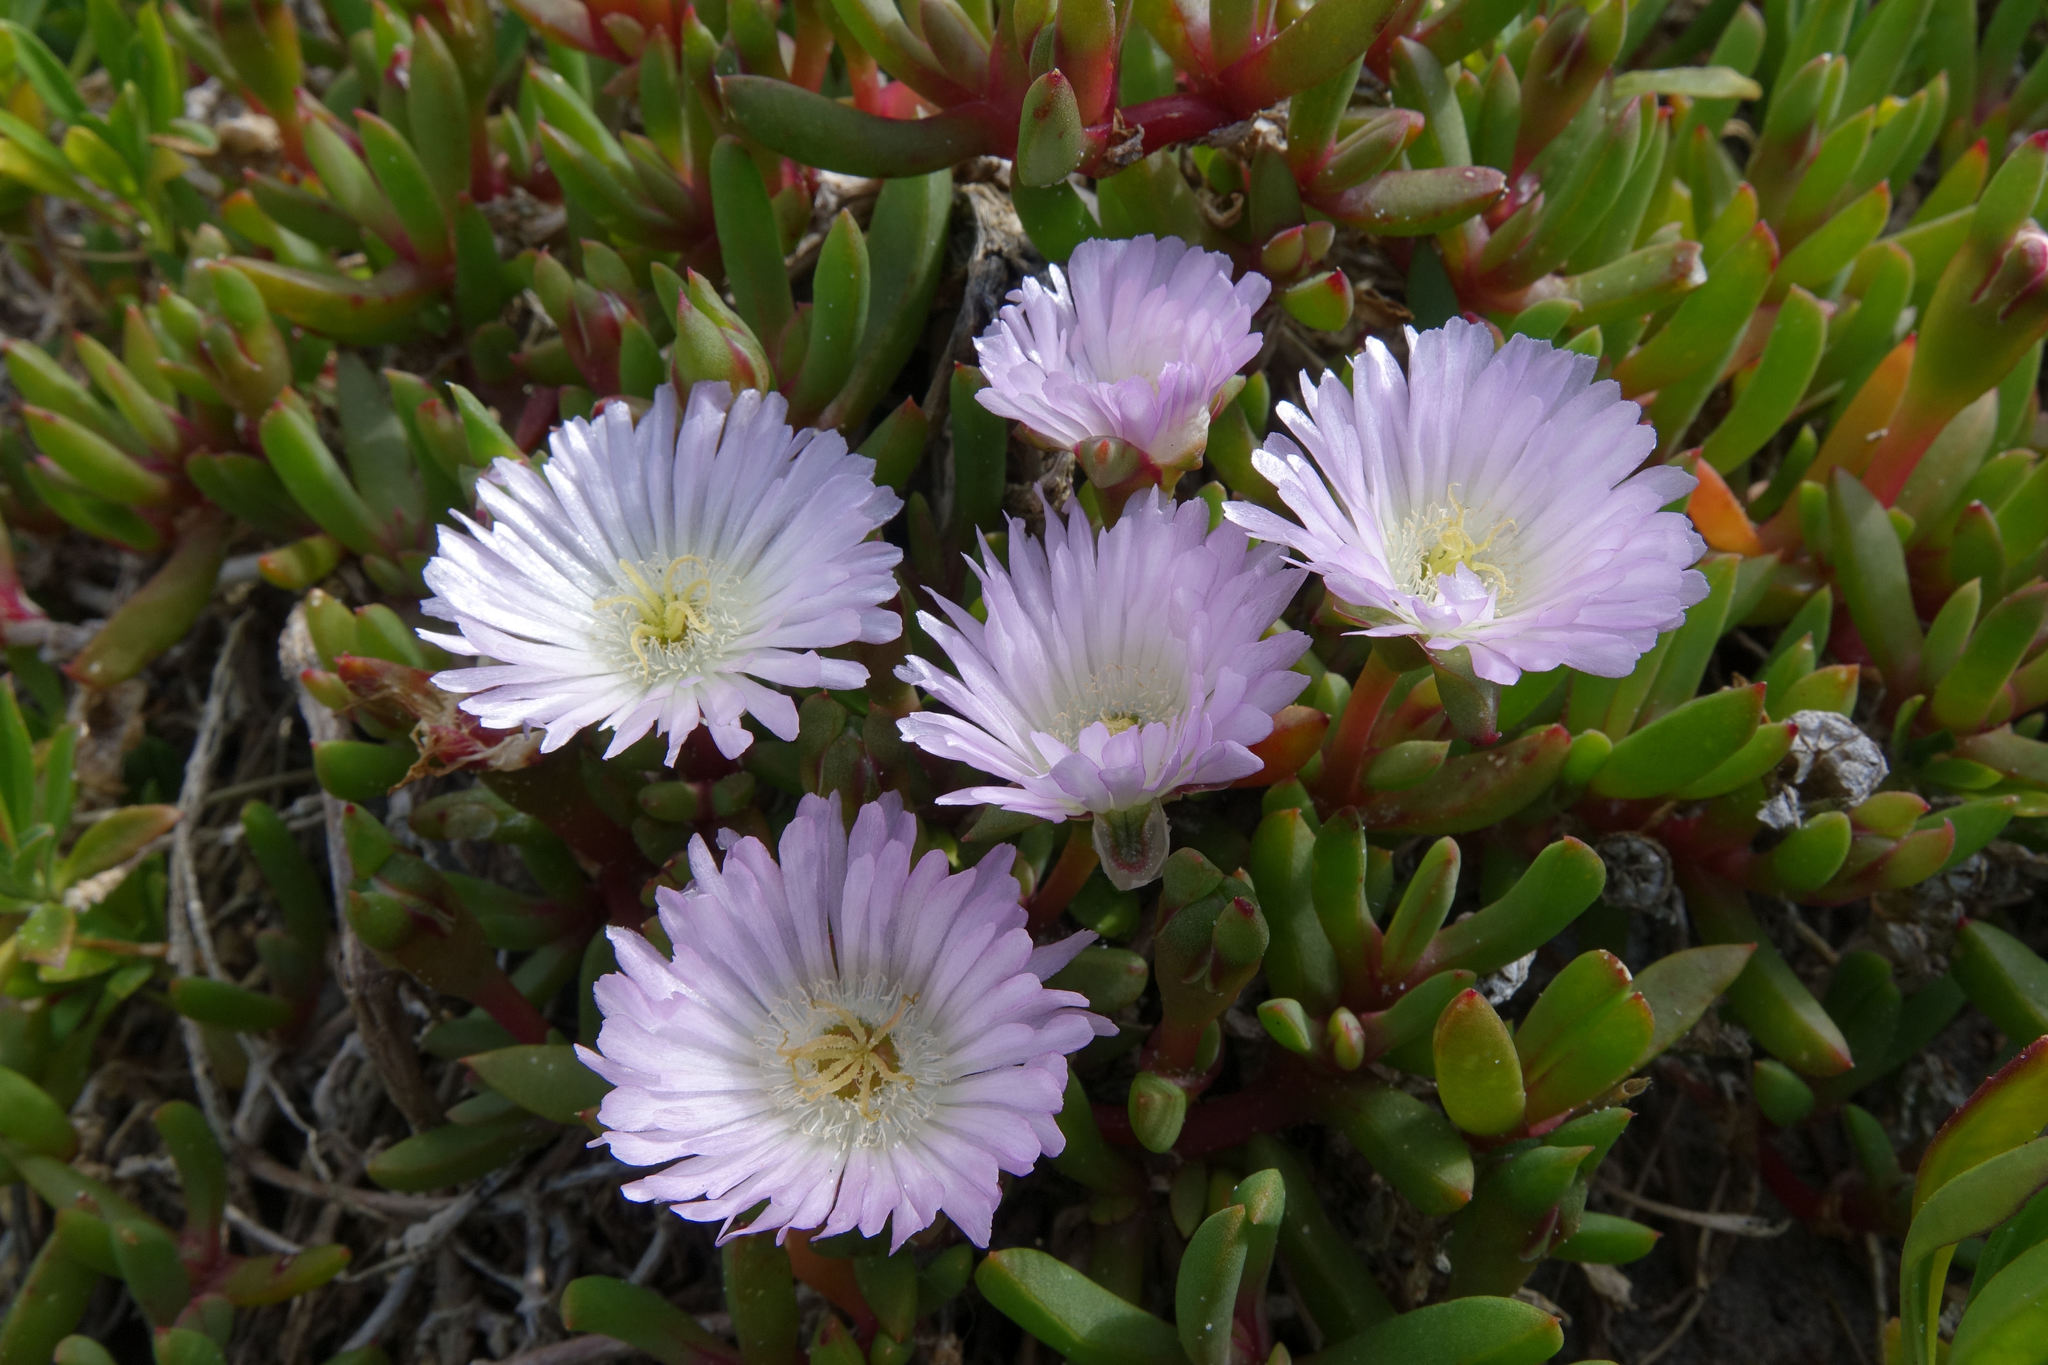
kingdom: Plantae
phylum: Tracheophyta
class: Magnoliopsida
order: Caryophyllales
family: Aizoaceae
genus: Disphyma
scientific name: Disphyma australe
